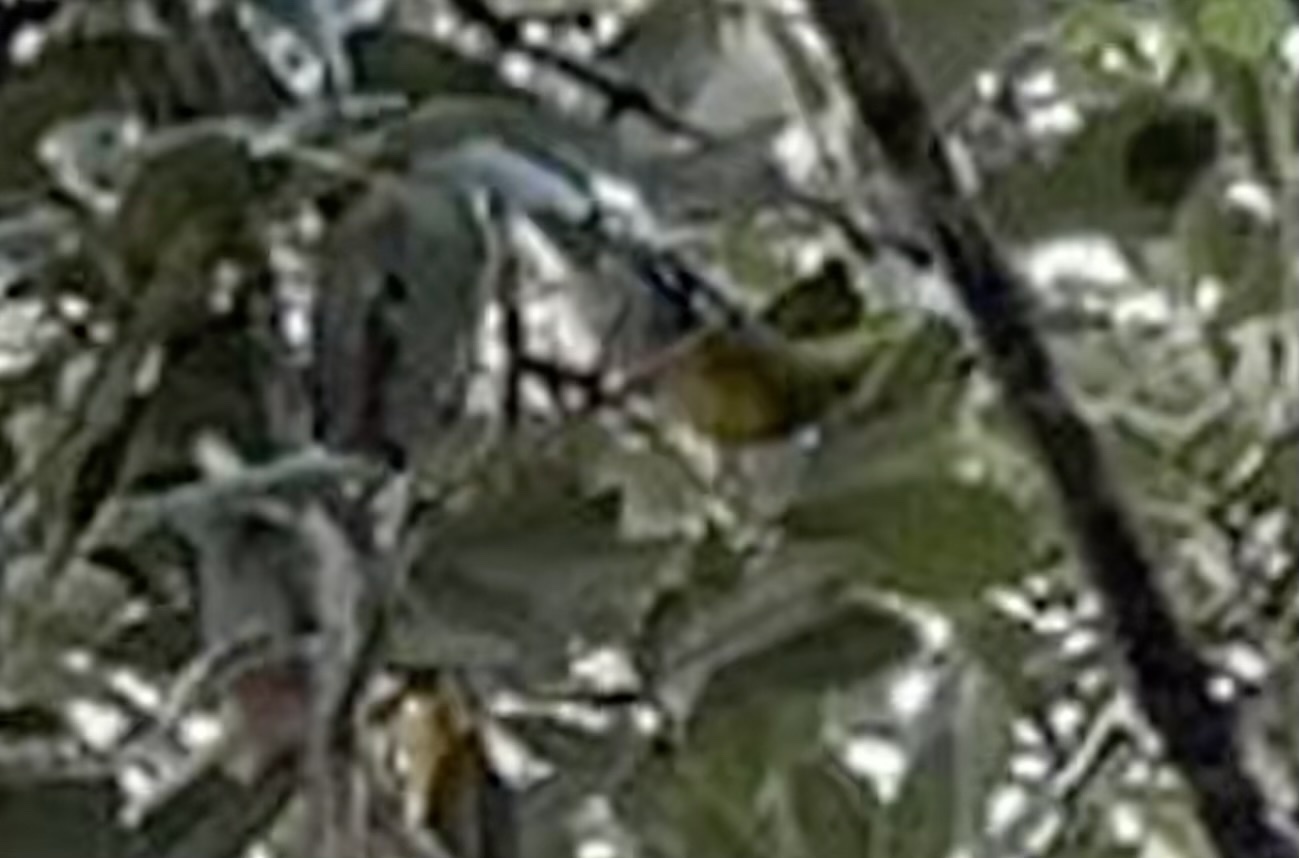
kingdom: Animalia
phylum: Chordata
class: Aves
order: Passeriformes
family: Parulidae
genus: Setophaga
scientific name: Setophaga americana
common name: Northern parula
